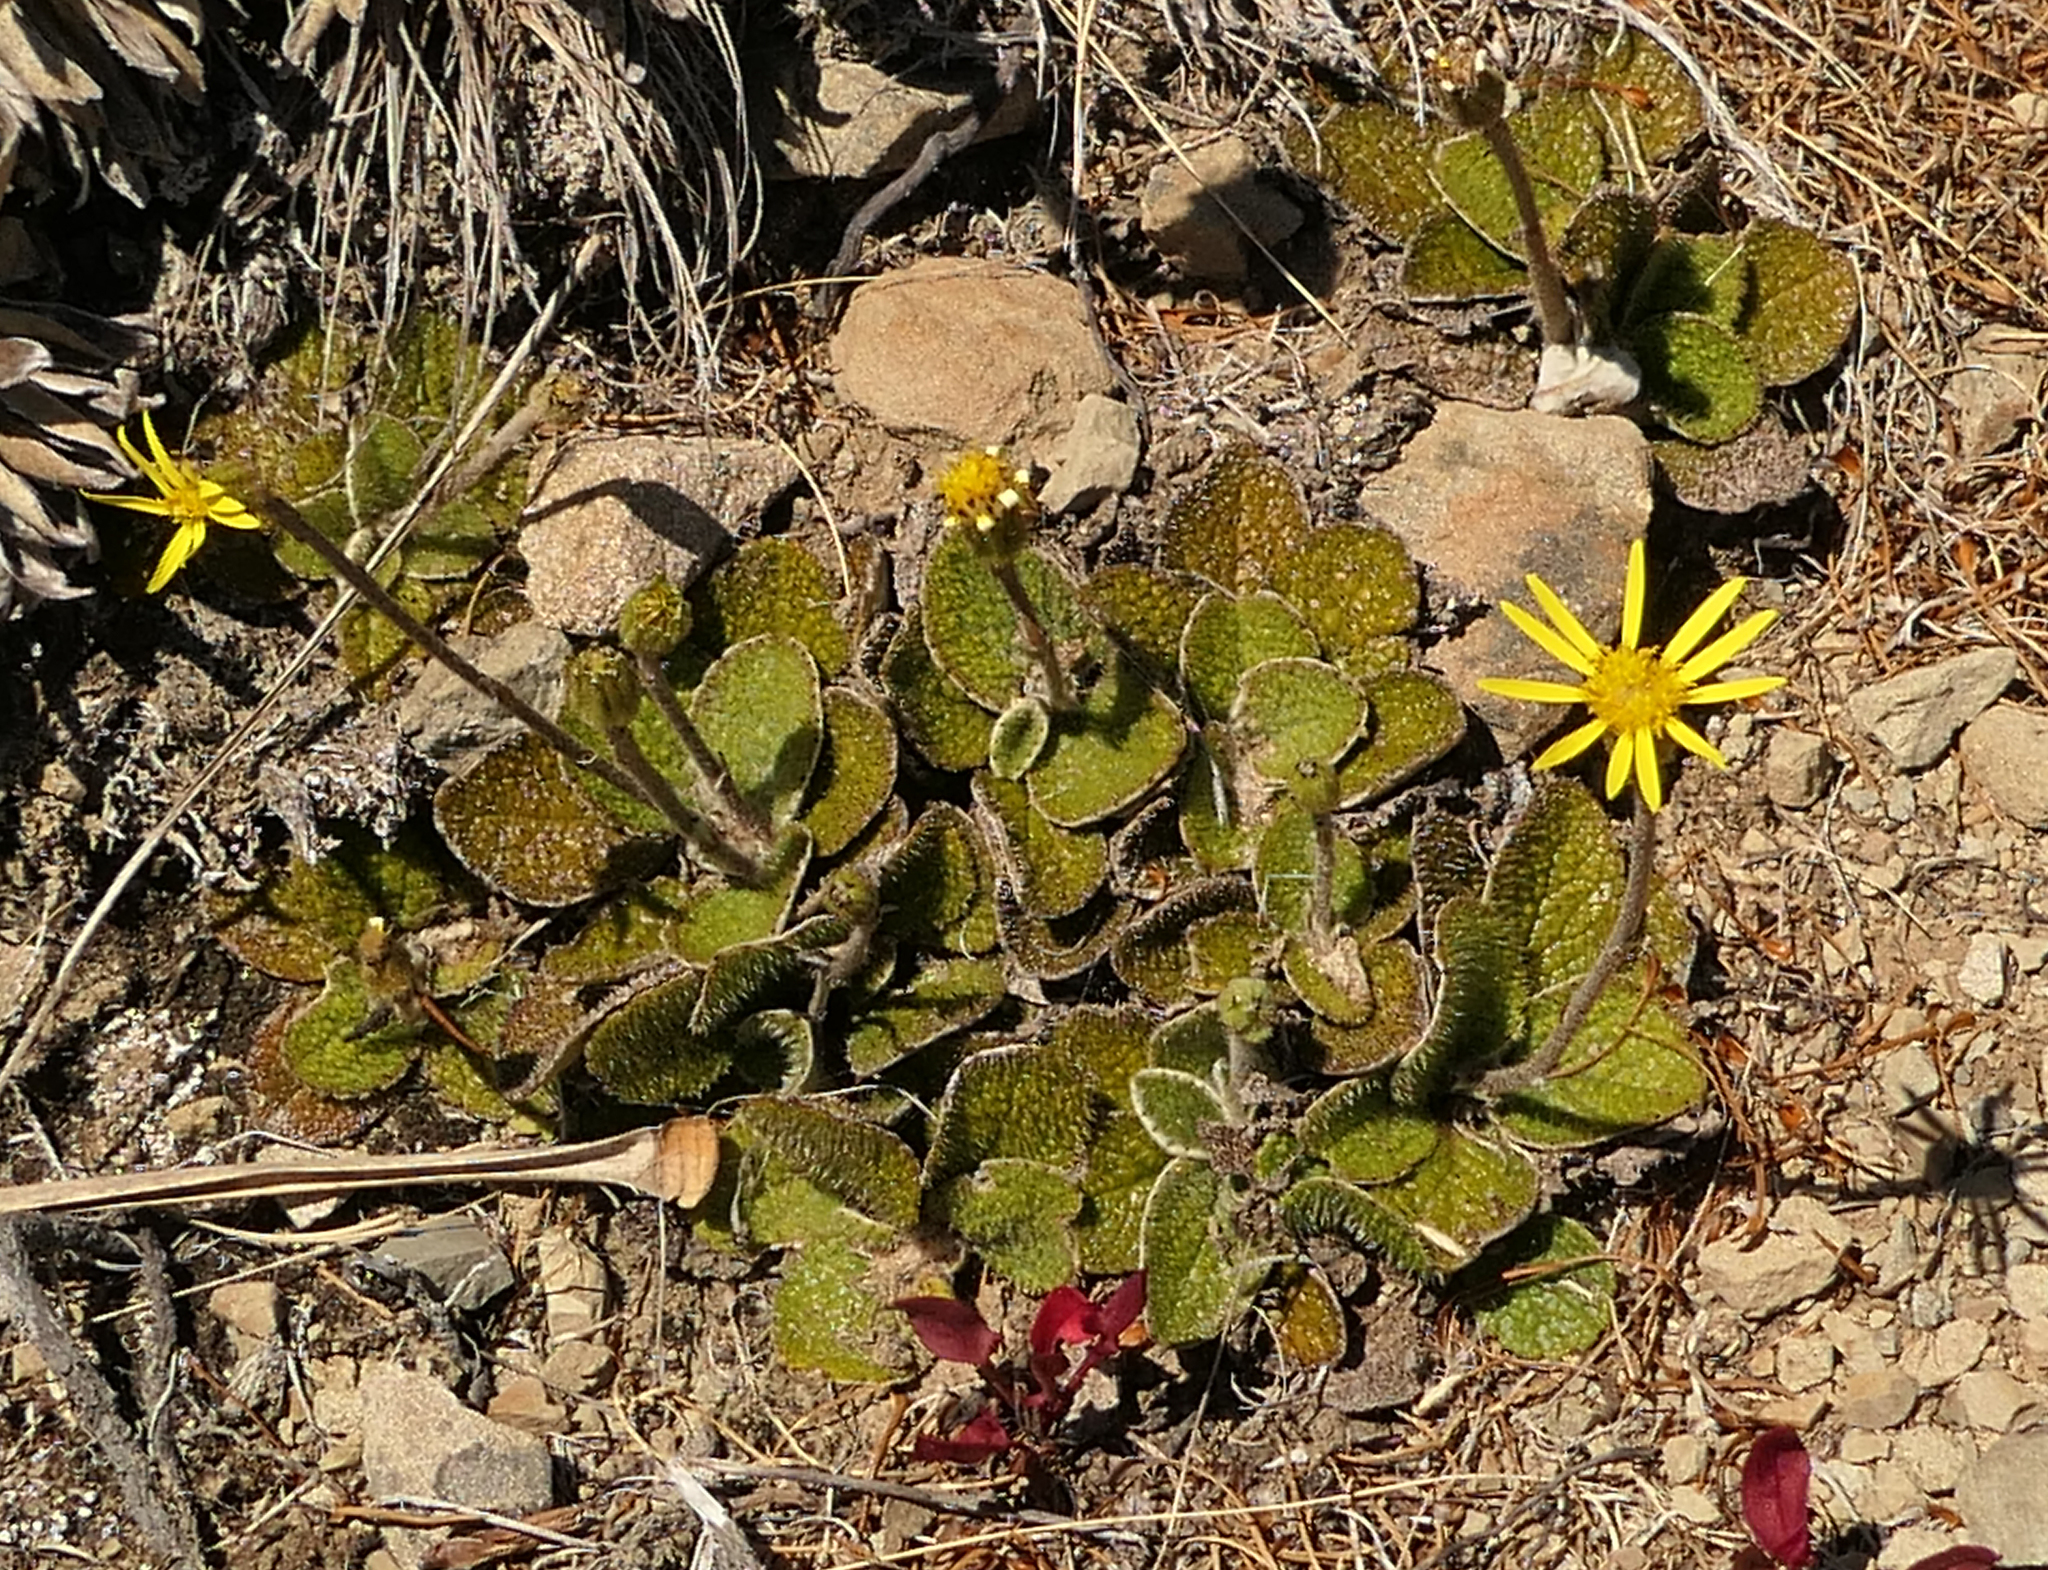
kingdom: Plantae
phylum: Tracheophyta
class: Magnoliopsida
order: Asterales
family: Asteraceae
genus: Brachyglottis
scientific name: Brachyglottis bellidioides
